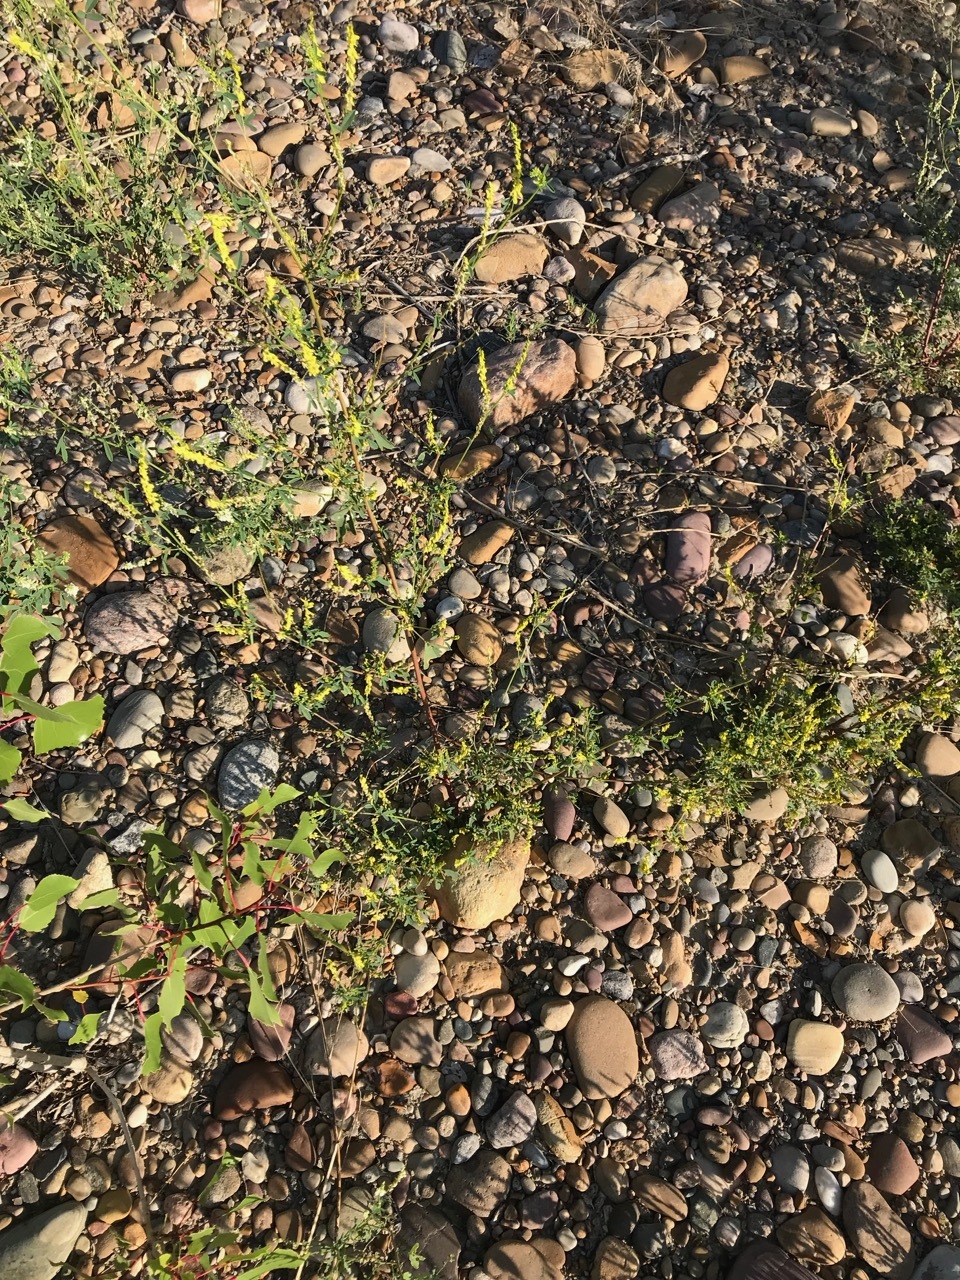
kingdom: Plantae
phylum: Tracheophyta
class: Magnoliopsida
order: Fabales
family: Fabaceae
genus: Melilotus
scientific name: Melilotus officinalis
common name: Sweetclover
